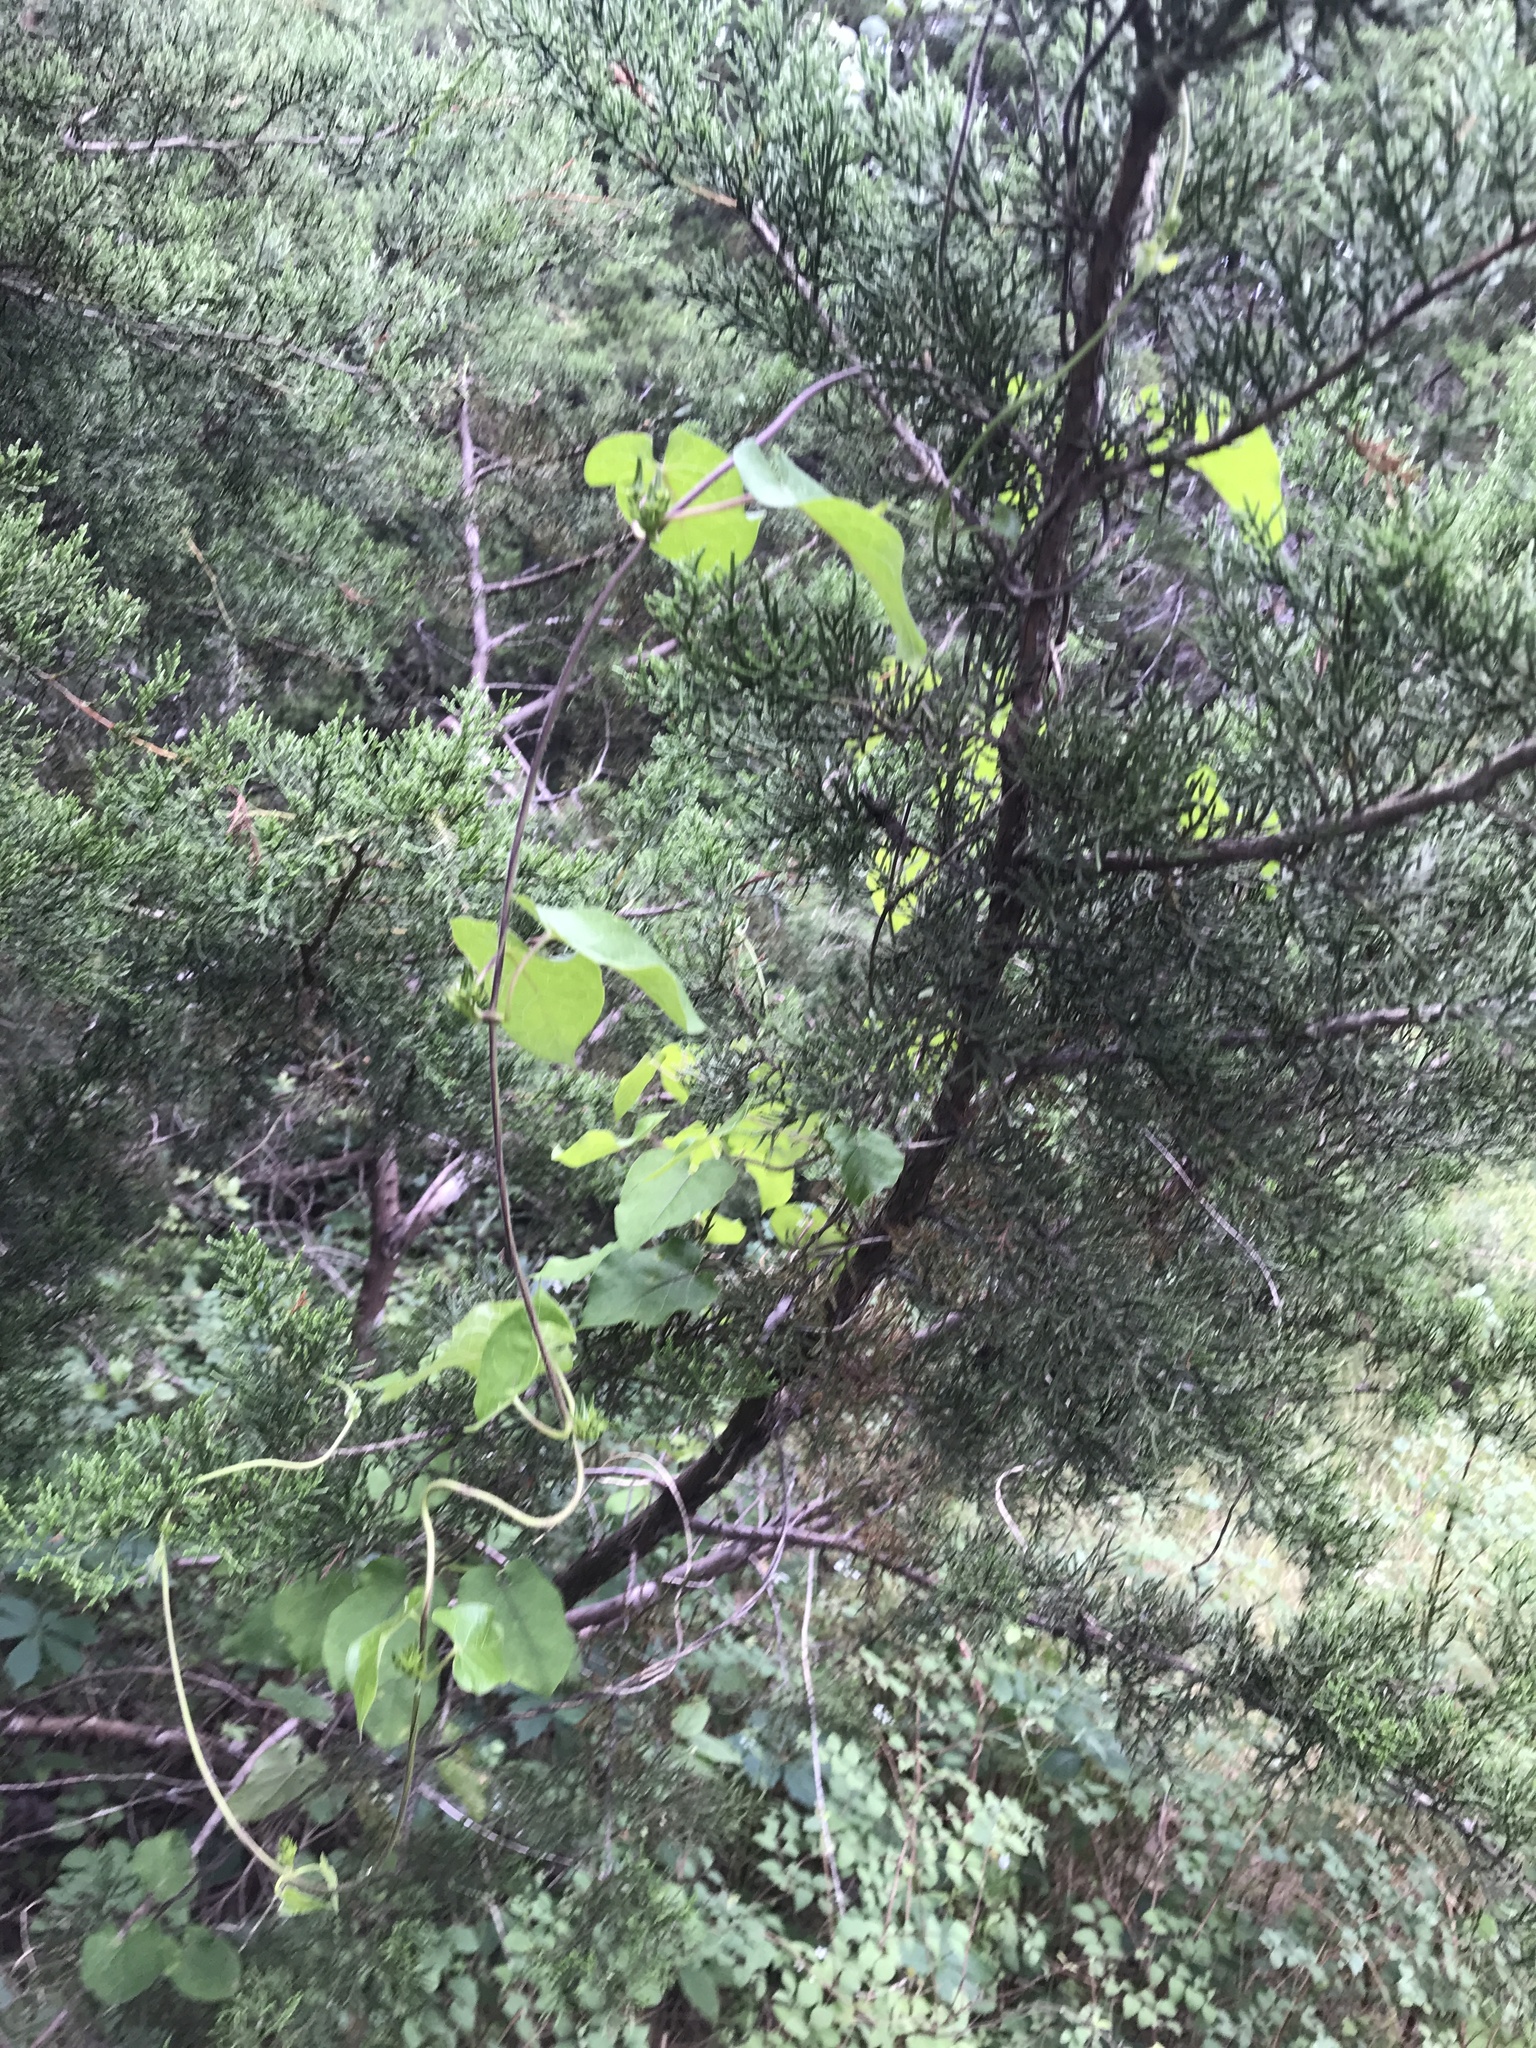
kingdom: Plantae
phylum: Tracheophyta
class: Magnoliopsida
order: Gentianales
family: Apocynaceae
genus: Gonolobus
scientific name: Gonolobus suberosus
